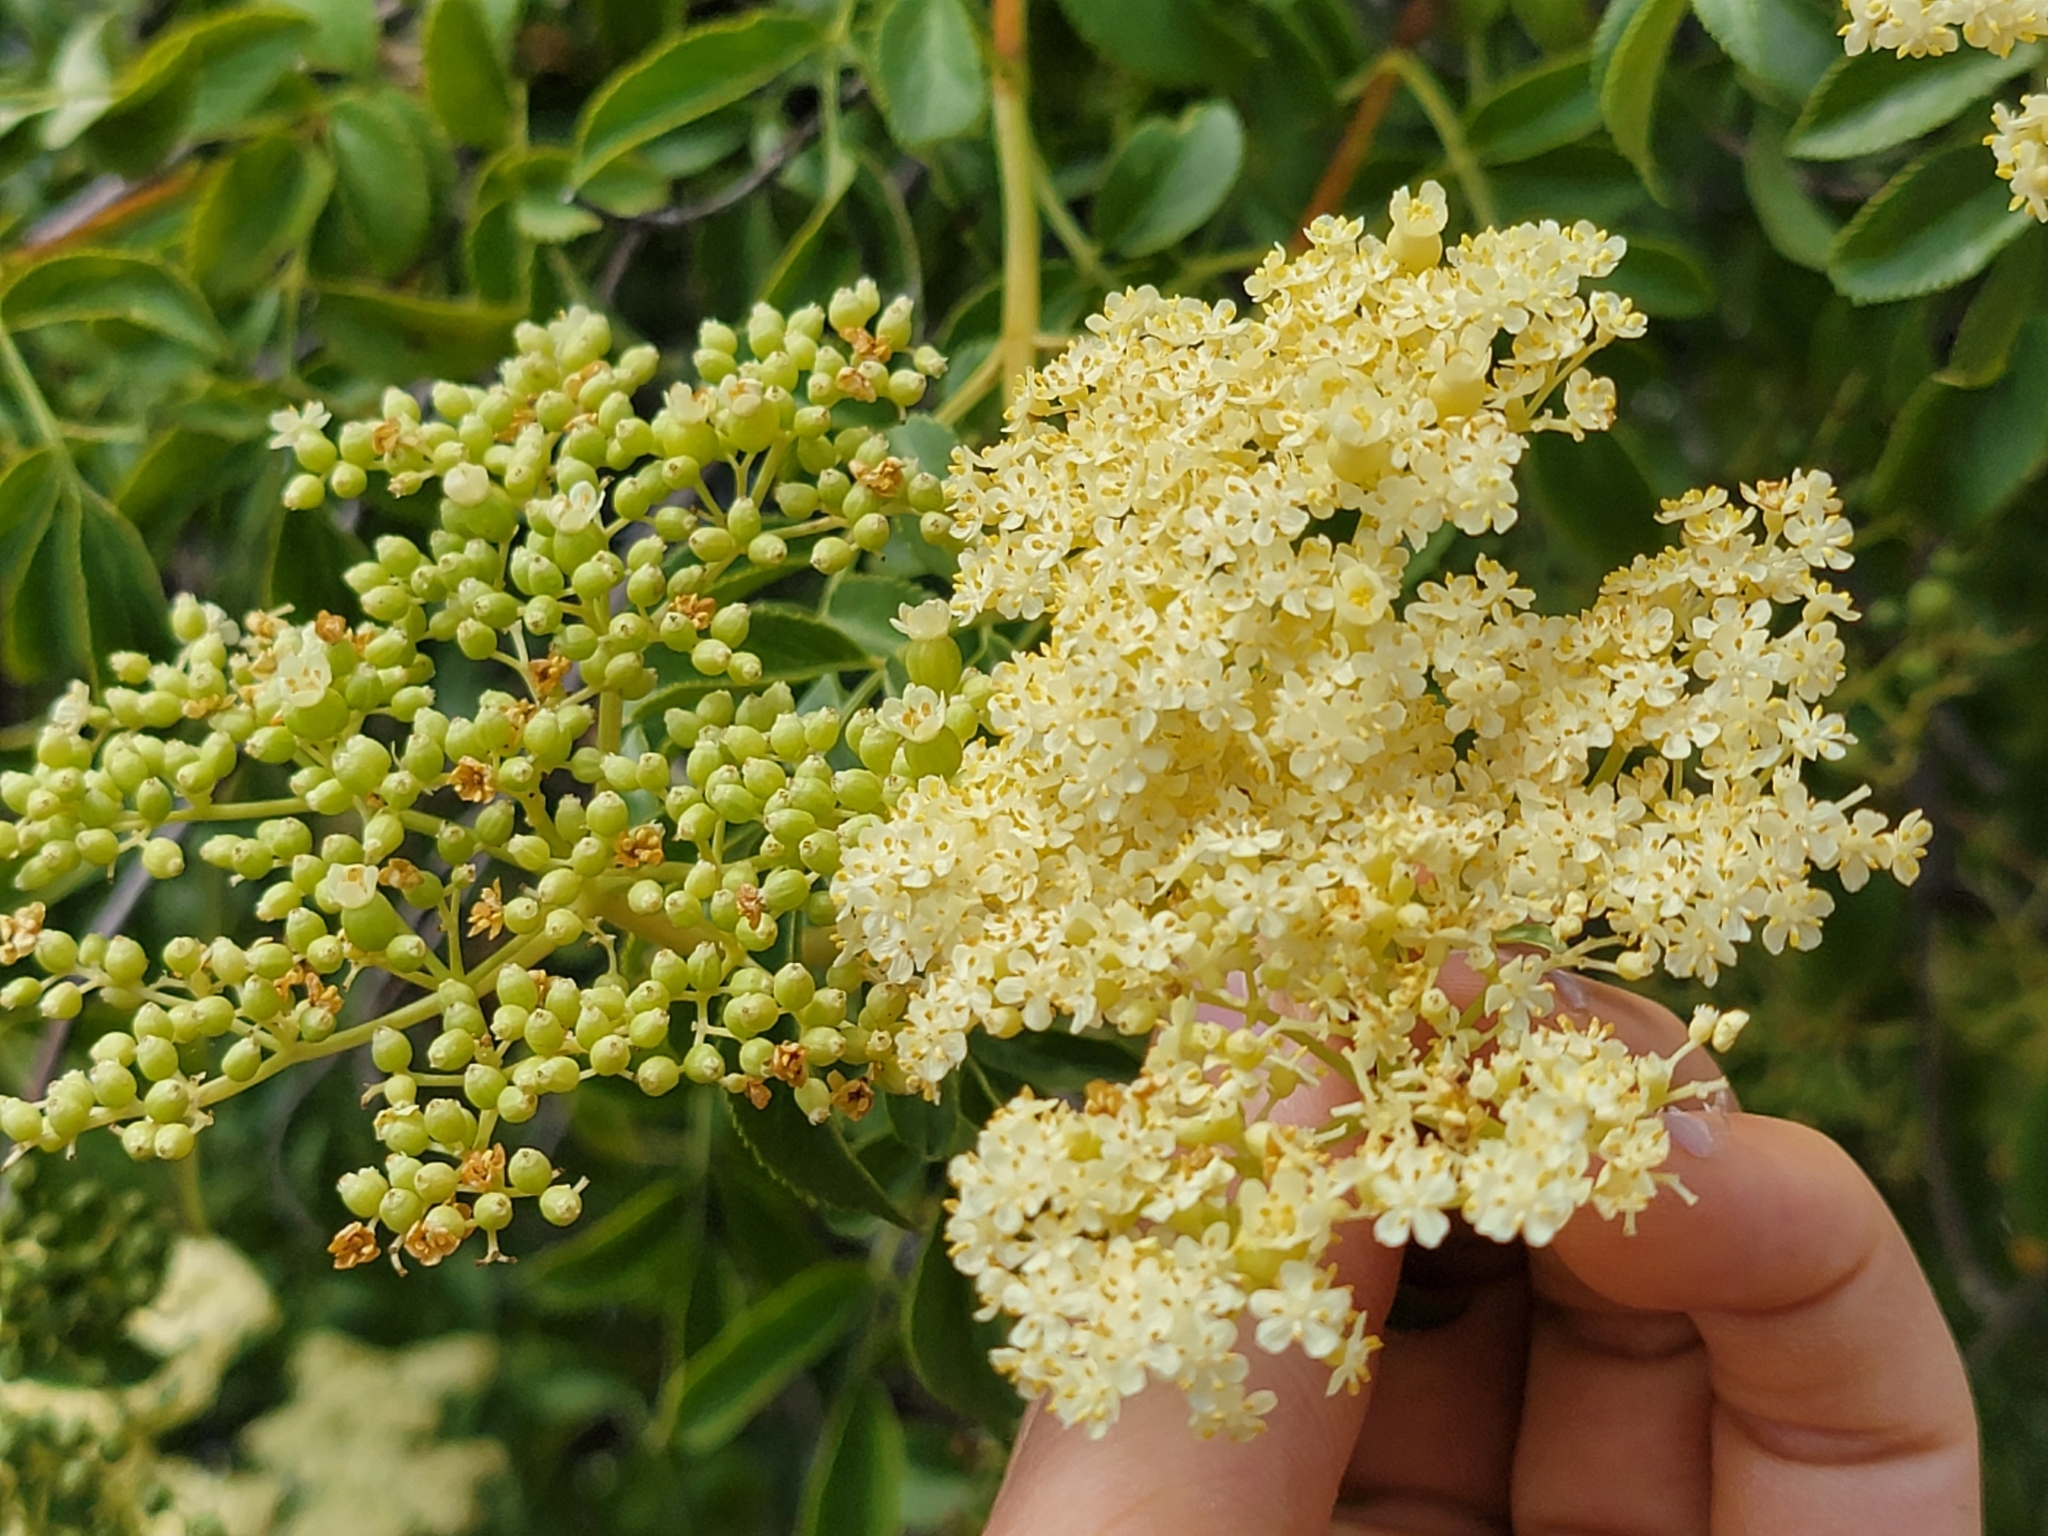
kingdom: Plantae
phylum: Tracheophyta
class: Magnoliopsida
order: Dipsacales
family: Viburnaceae
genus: Sambucus
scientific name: Sambucus cerulea
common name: Blue elder
